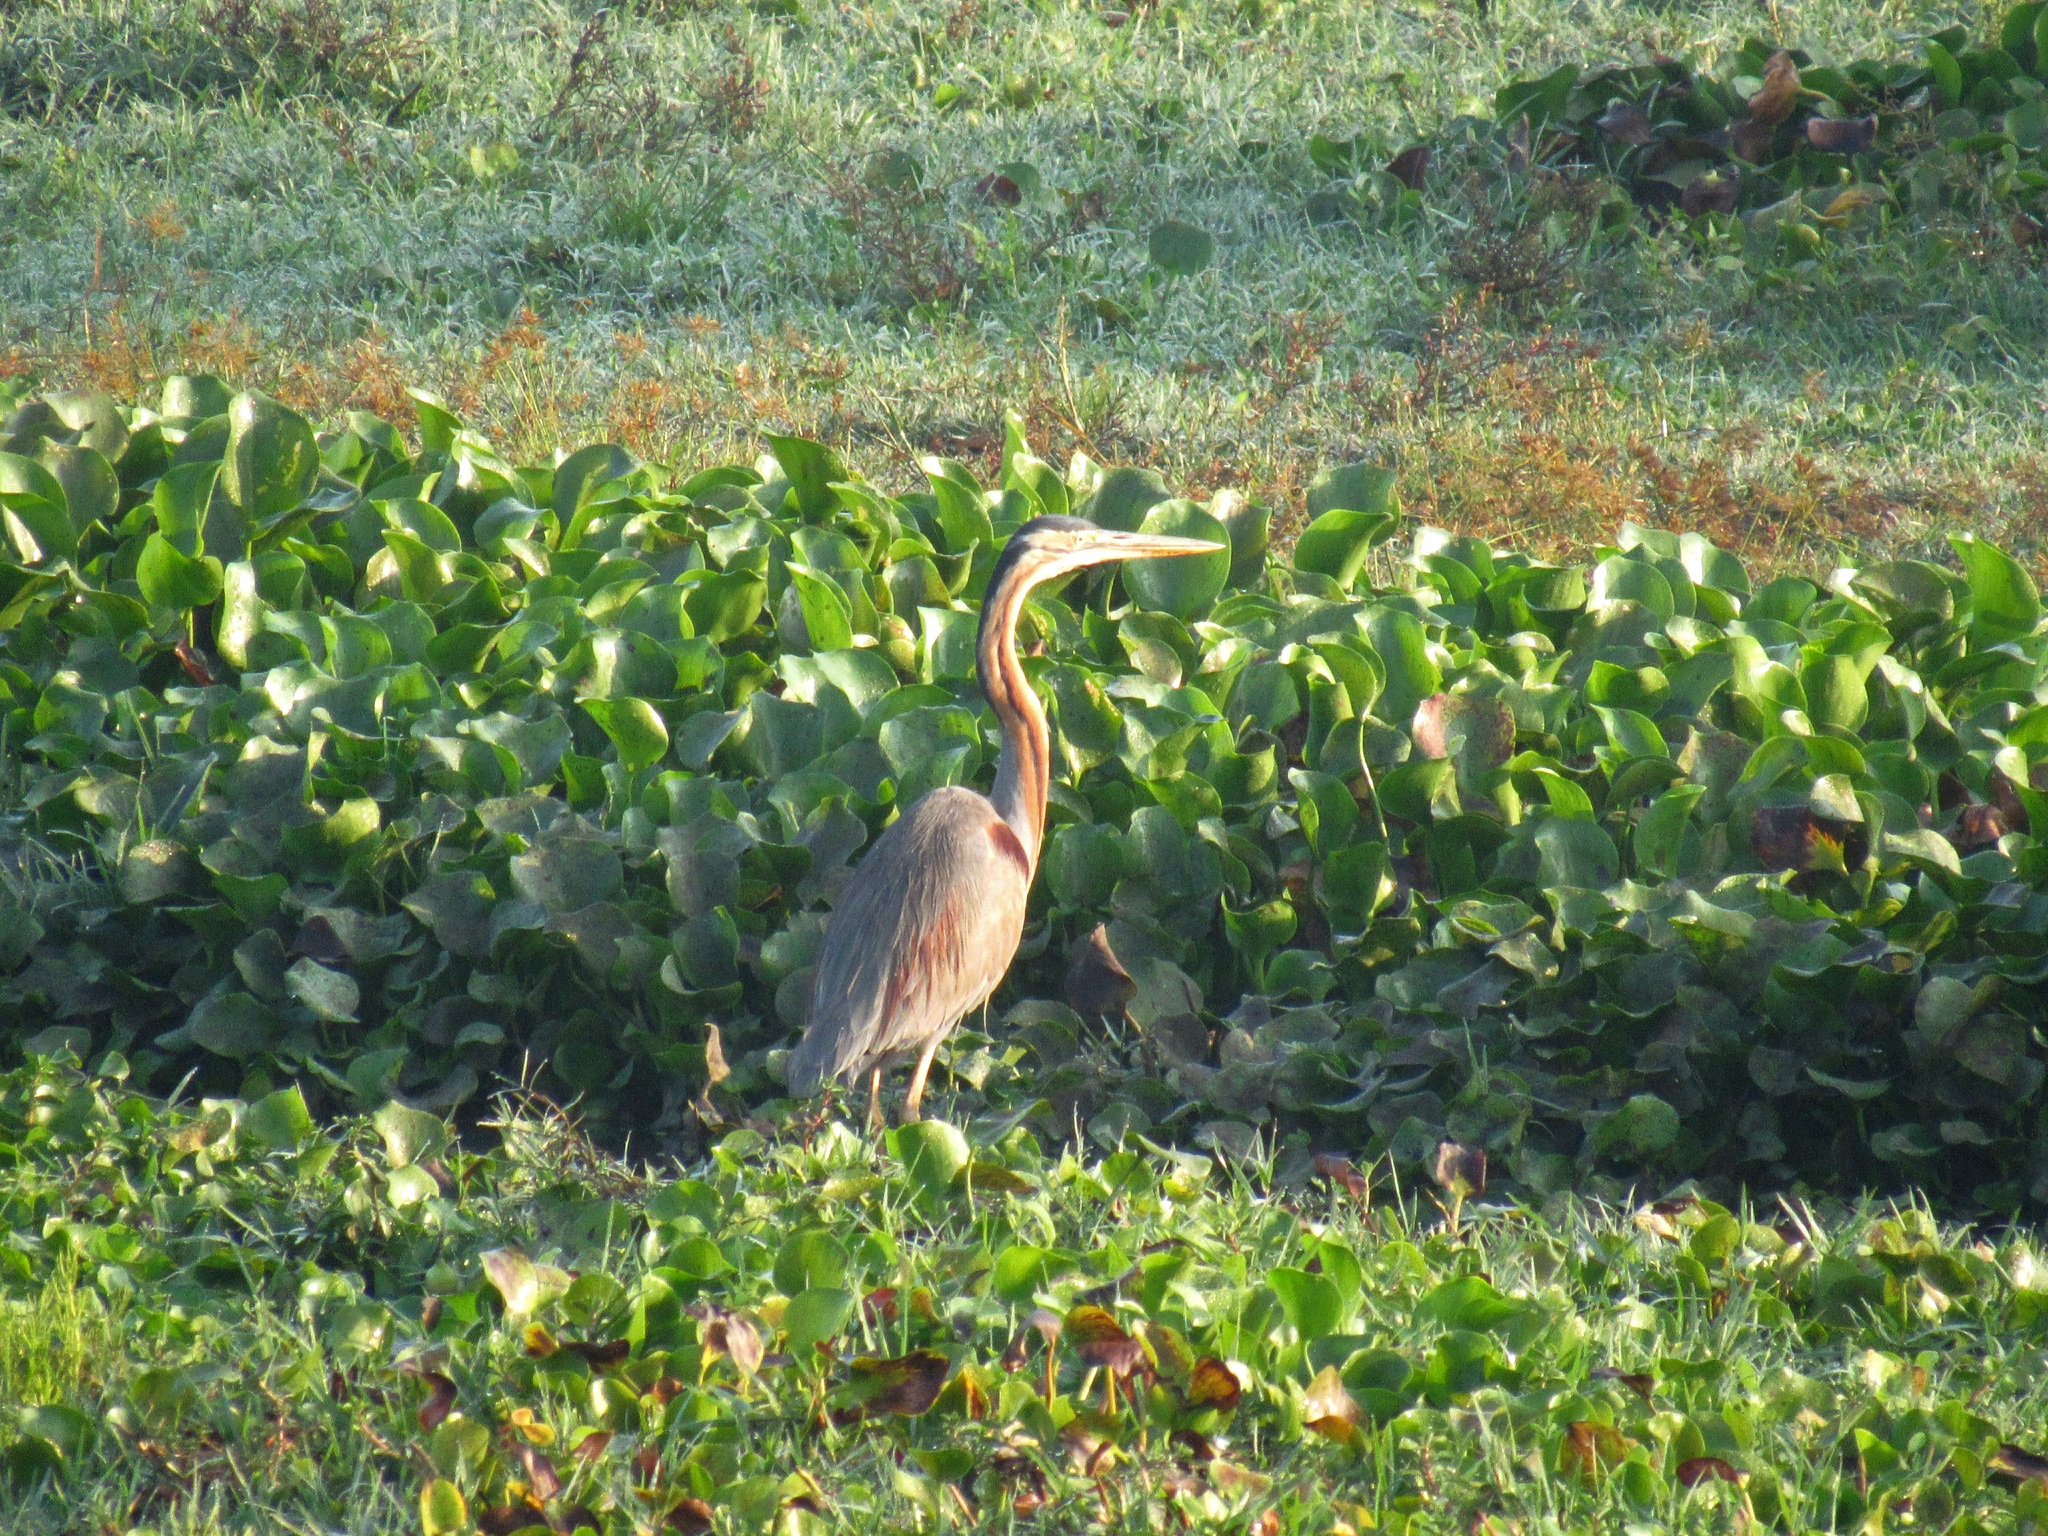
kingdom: Animalia
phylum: Chordata
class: Aves
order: Pelecaniformes
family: Ardeidae
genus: Ardea
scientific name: Ardea purpurea
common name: Purple heron
